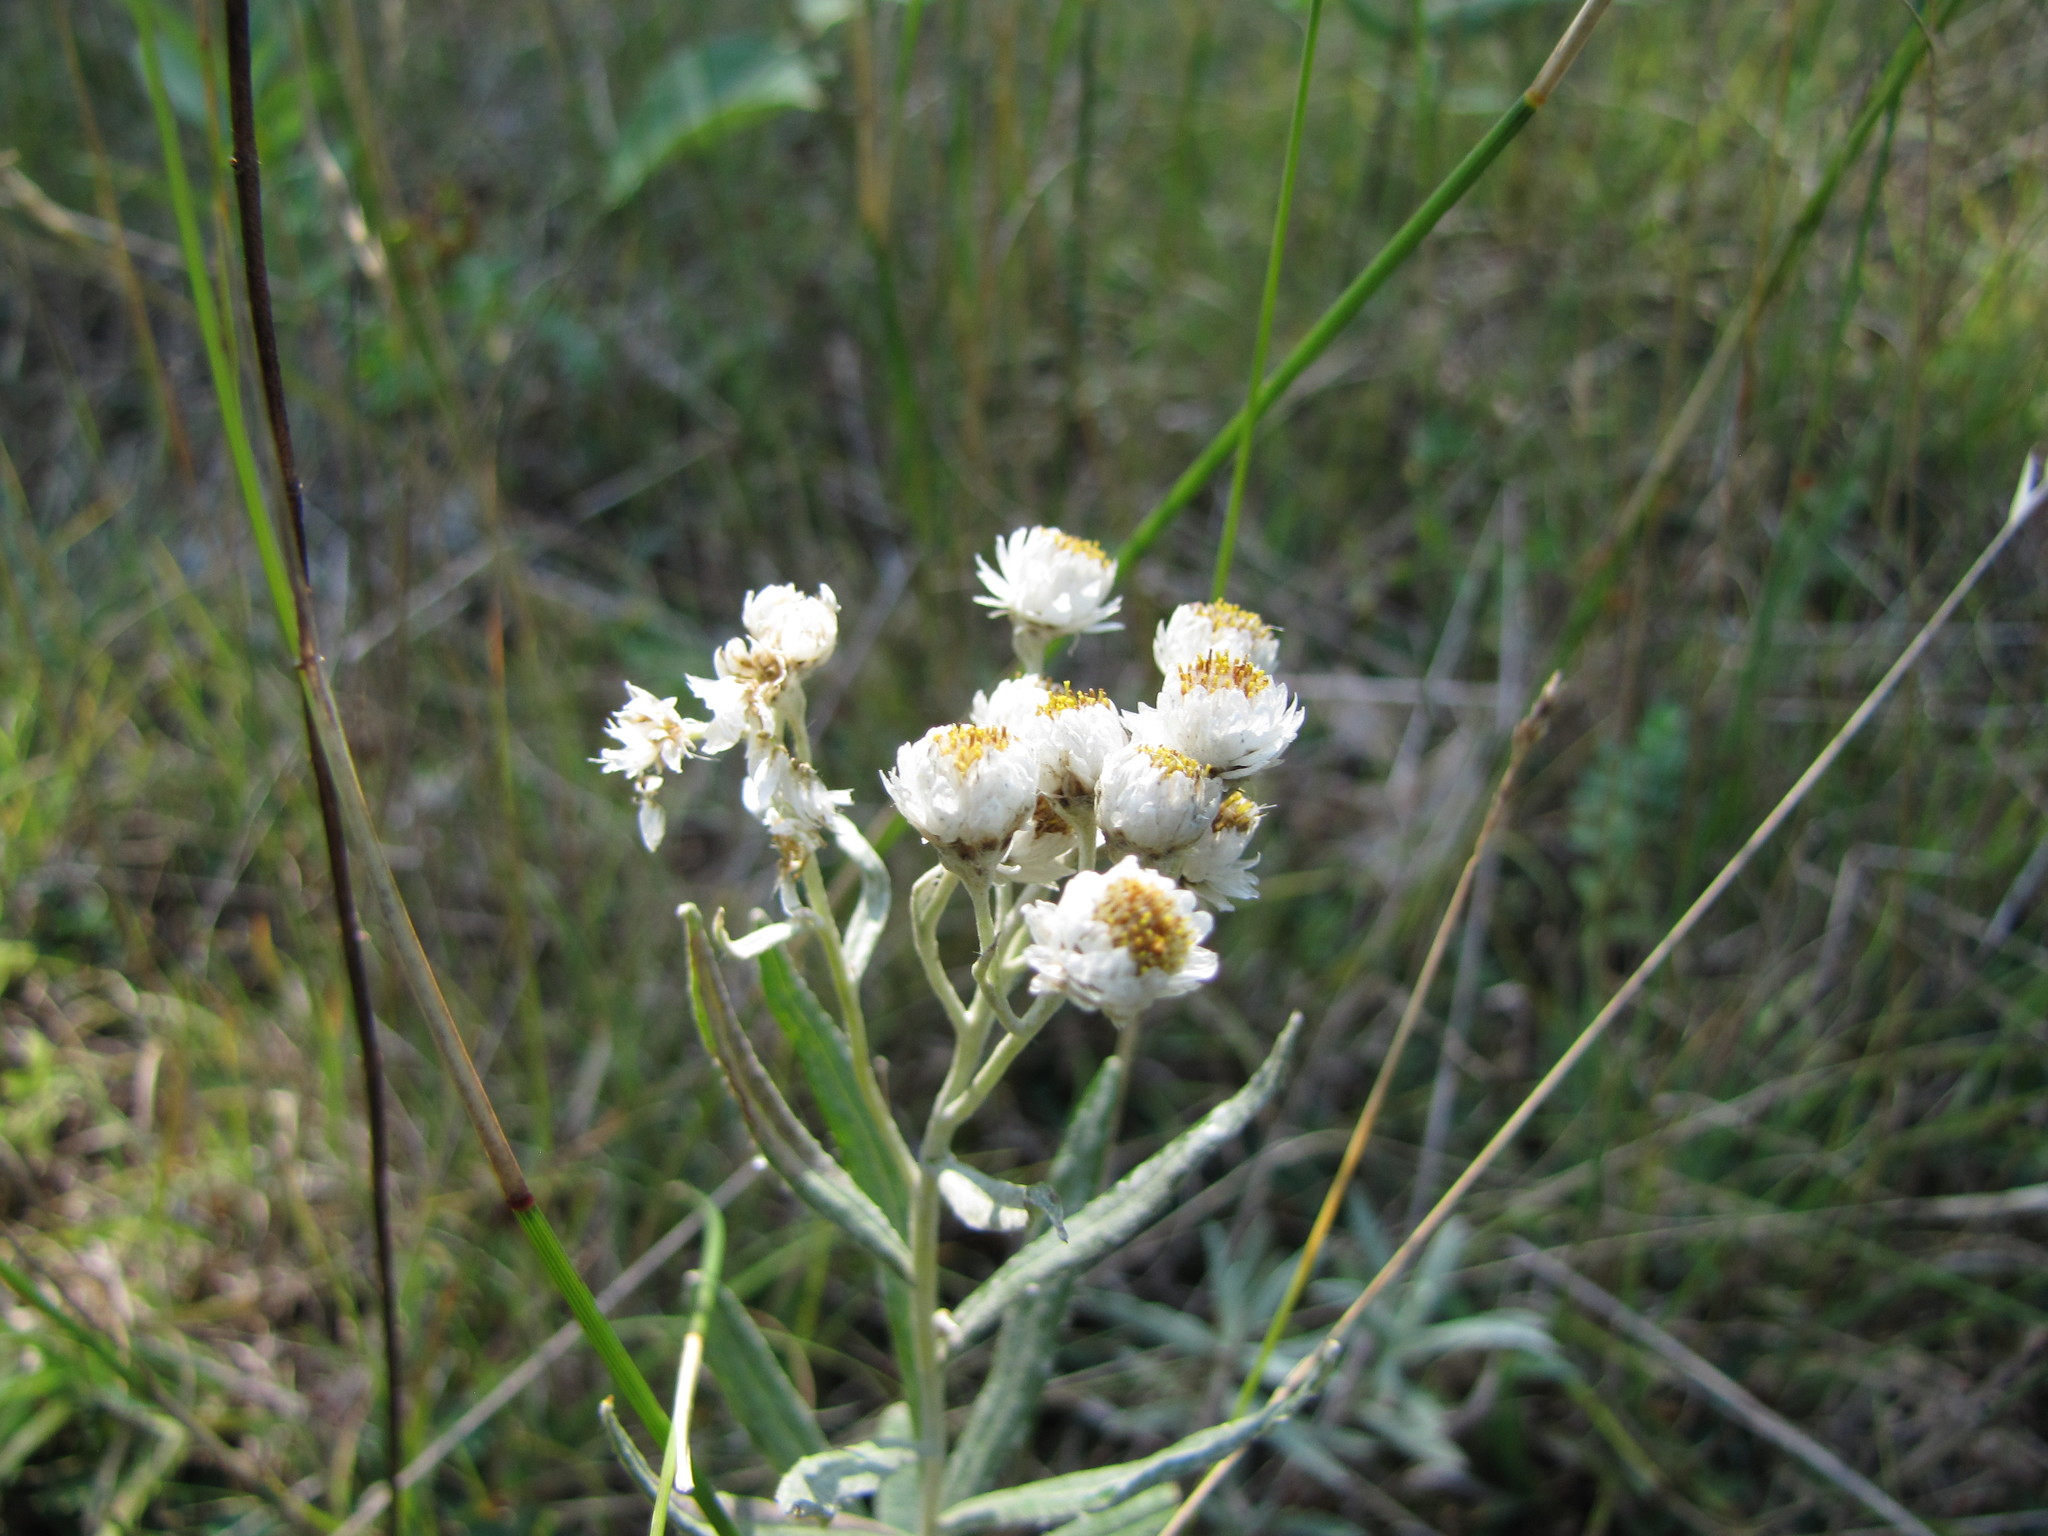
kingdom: Plantae
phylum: Tracheophyta
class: Magnoliopsida
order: Asterales
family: Asteraceae
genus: Anaphalis
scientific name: Anaphalis margaritacea
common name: Pearly everlasting
